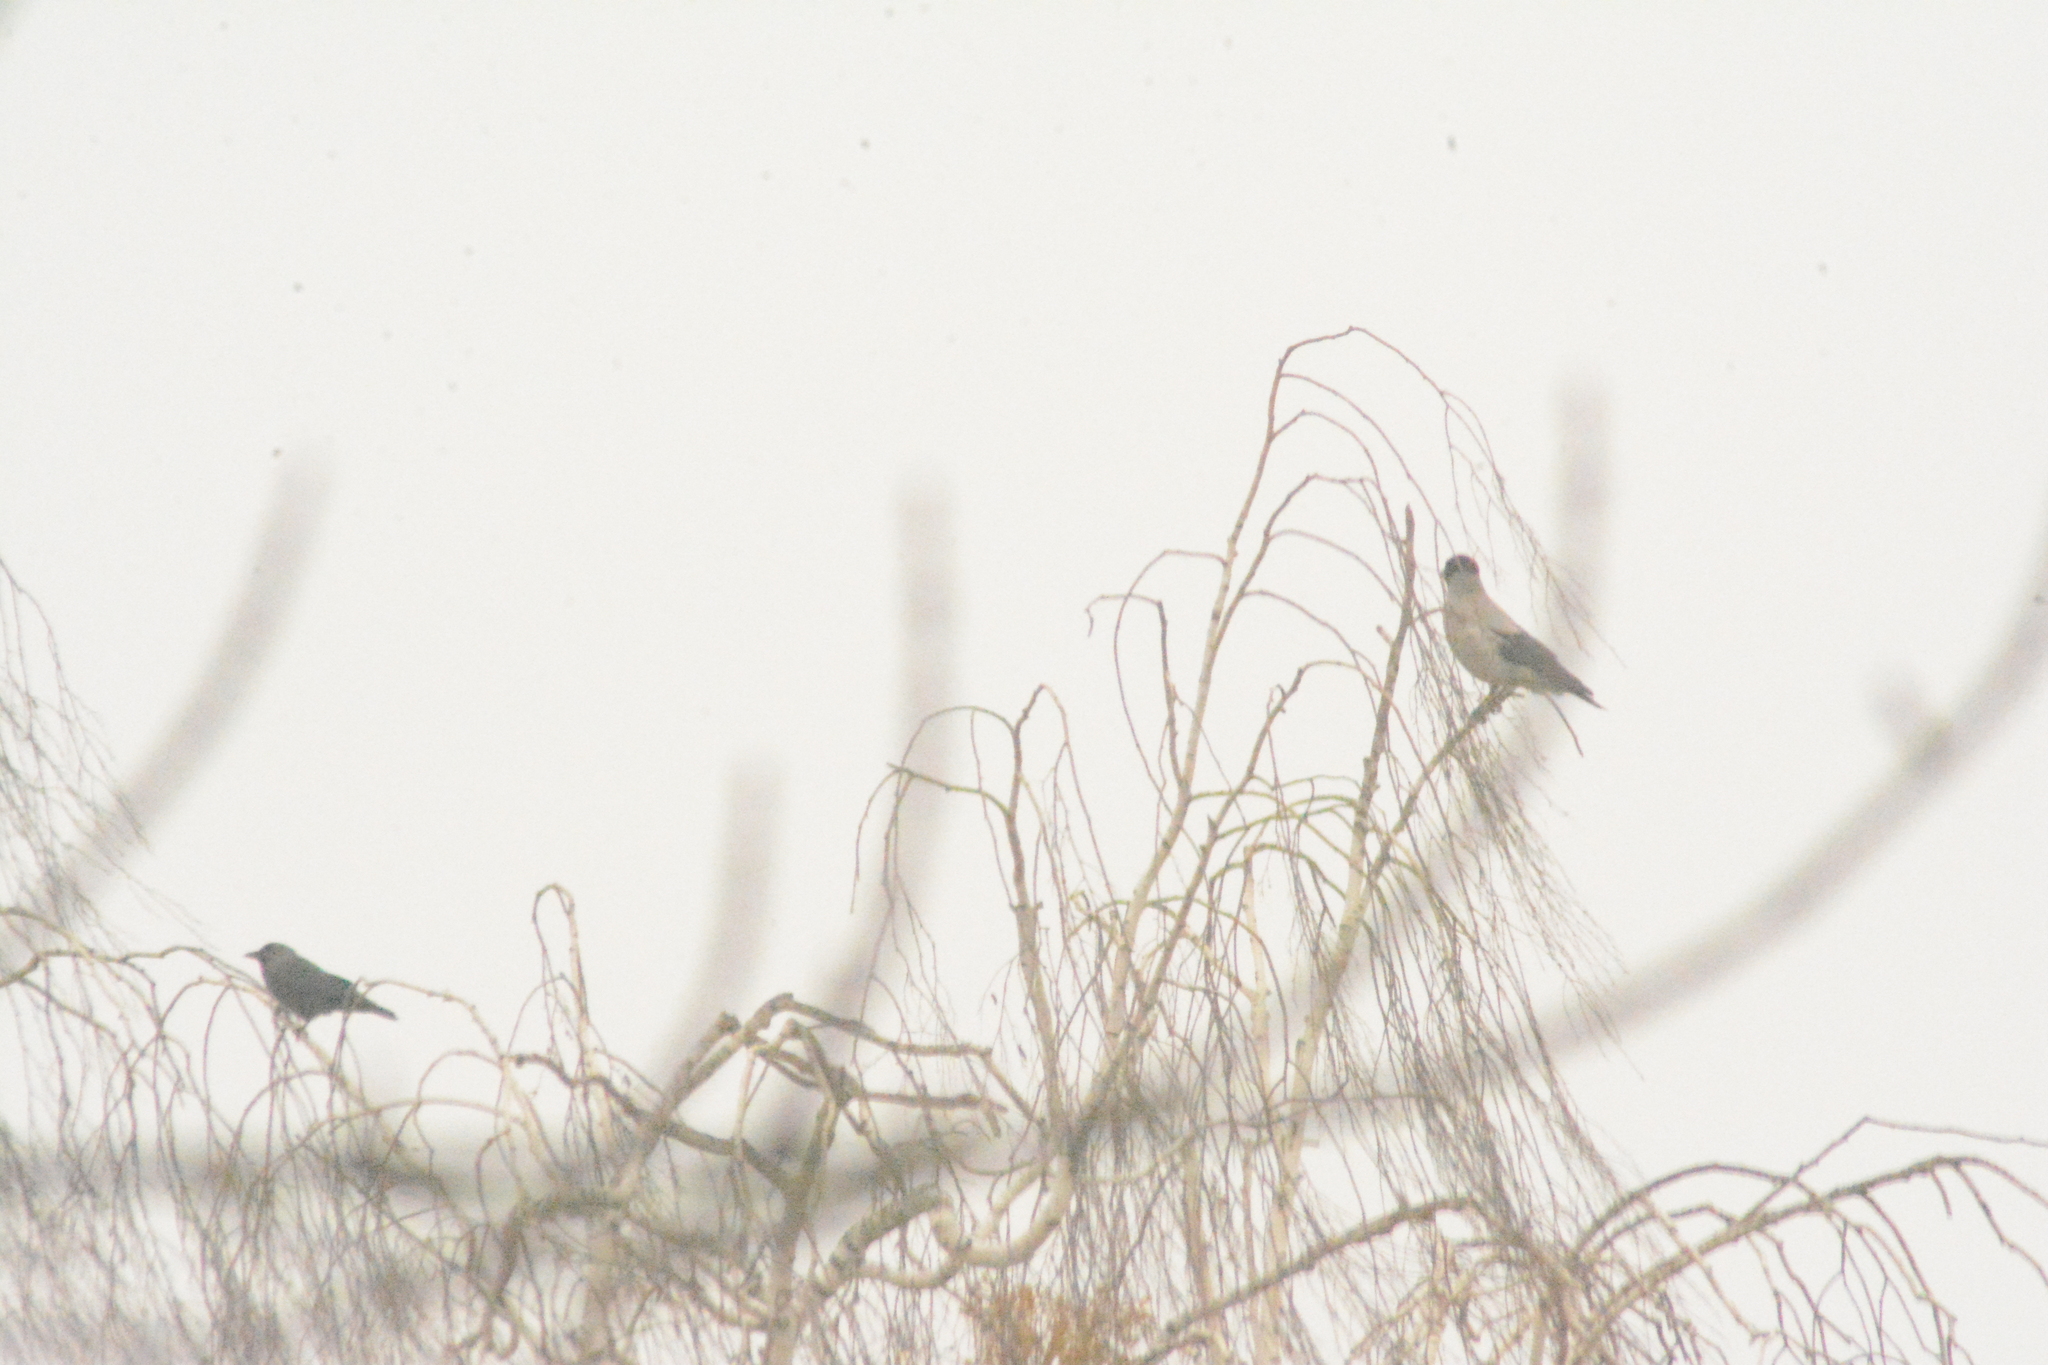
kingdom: Animalia
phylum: Chordata
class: Aves
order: Passeriformes
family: Corvidae
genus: Coloeus
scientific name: Coloeus monedula
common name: Western jackdaw
